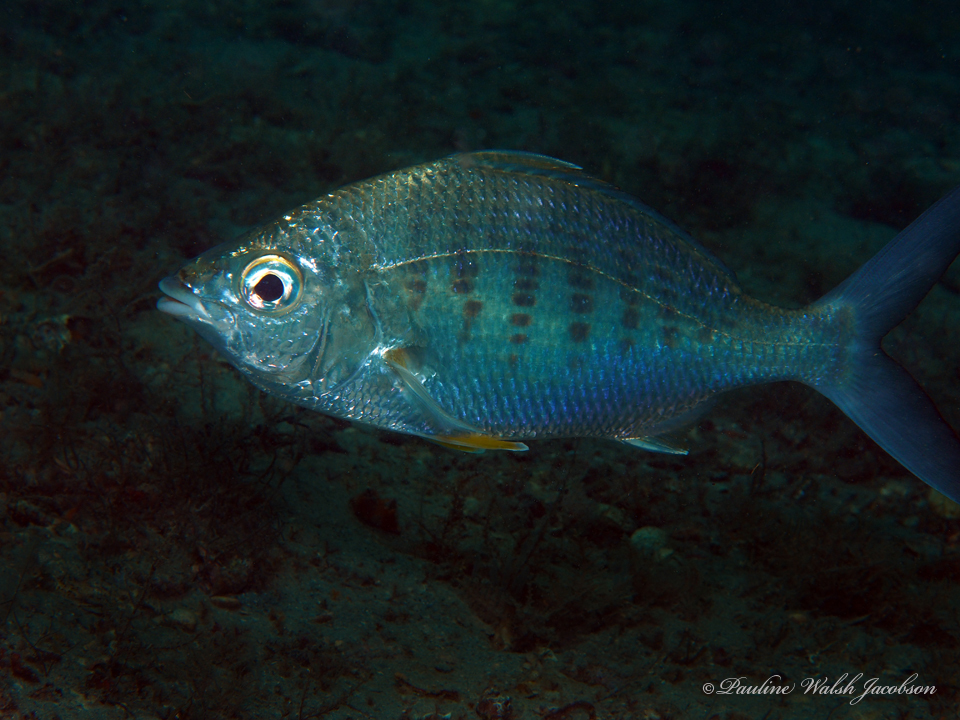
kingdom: Animalia
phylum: Chordata
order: Perciformes
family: Gerreidae
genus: Gerres
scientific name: Gerres cinereus
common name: Hedow
